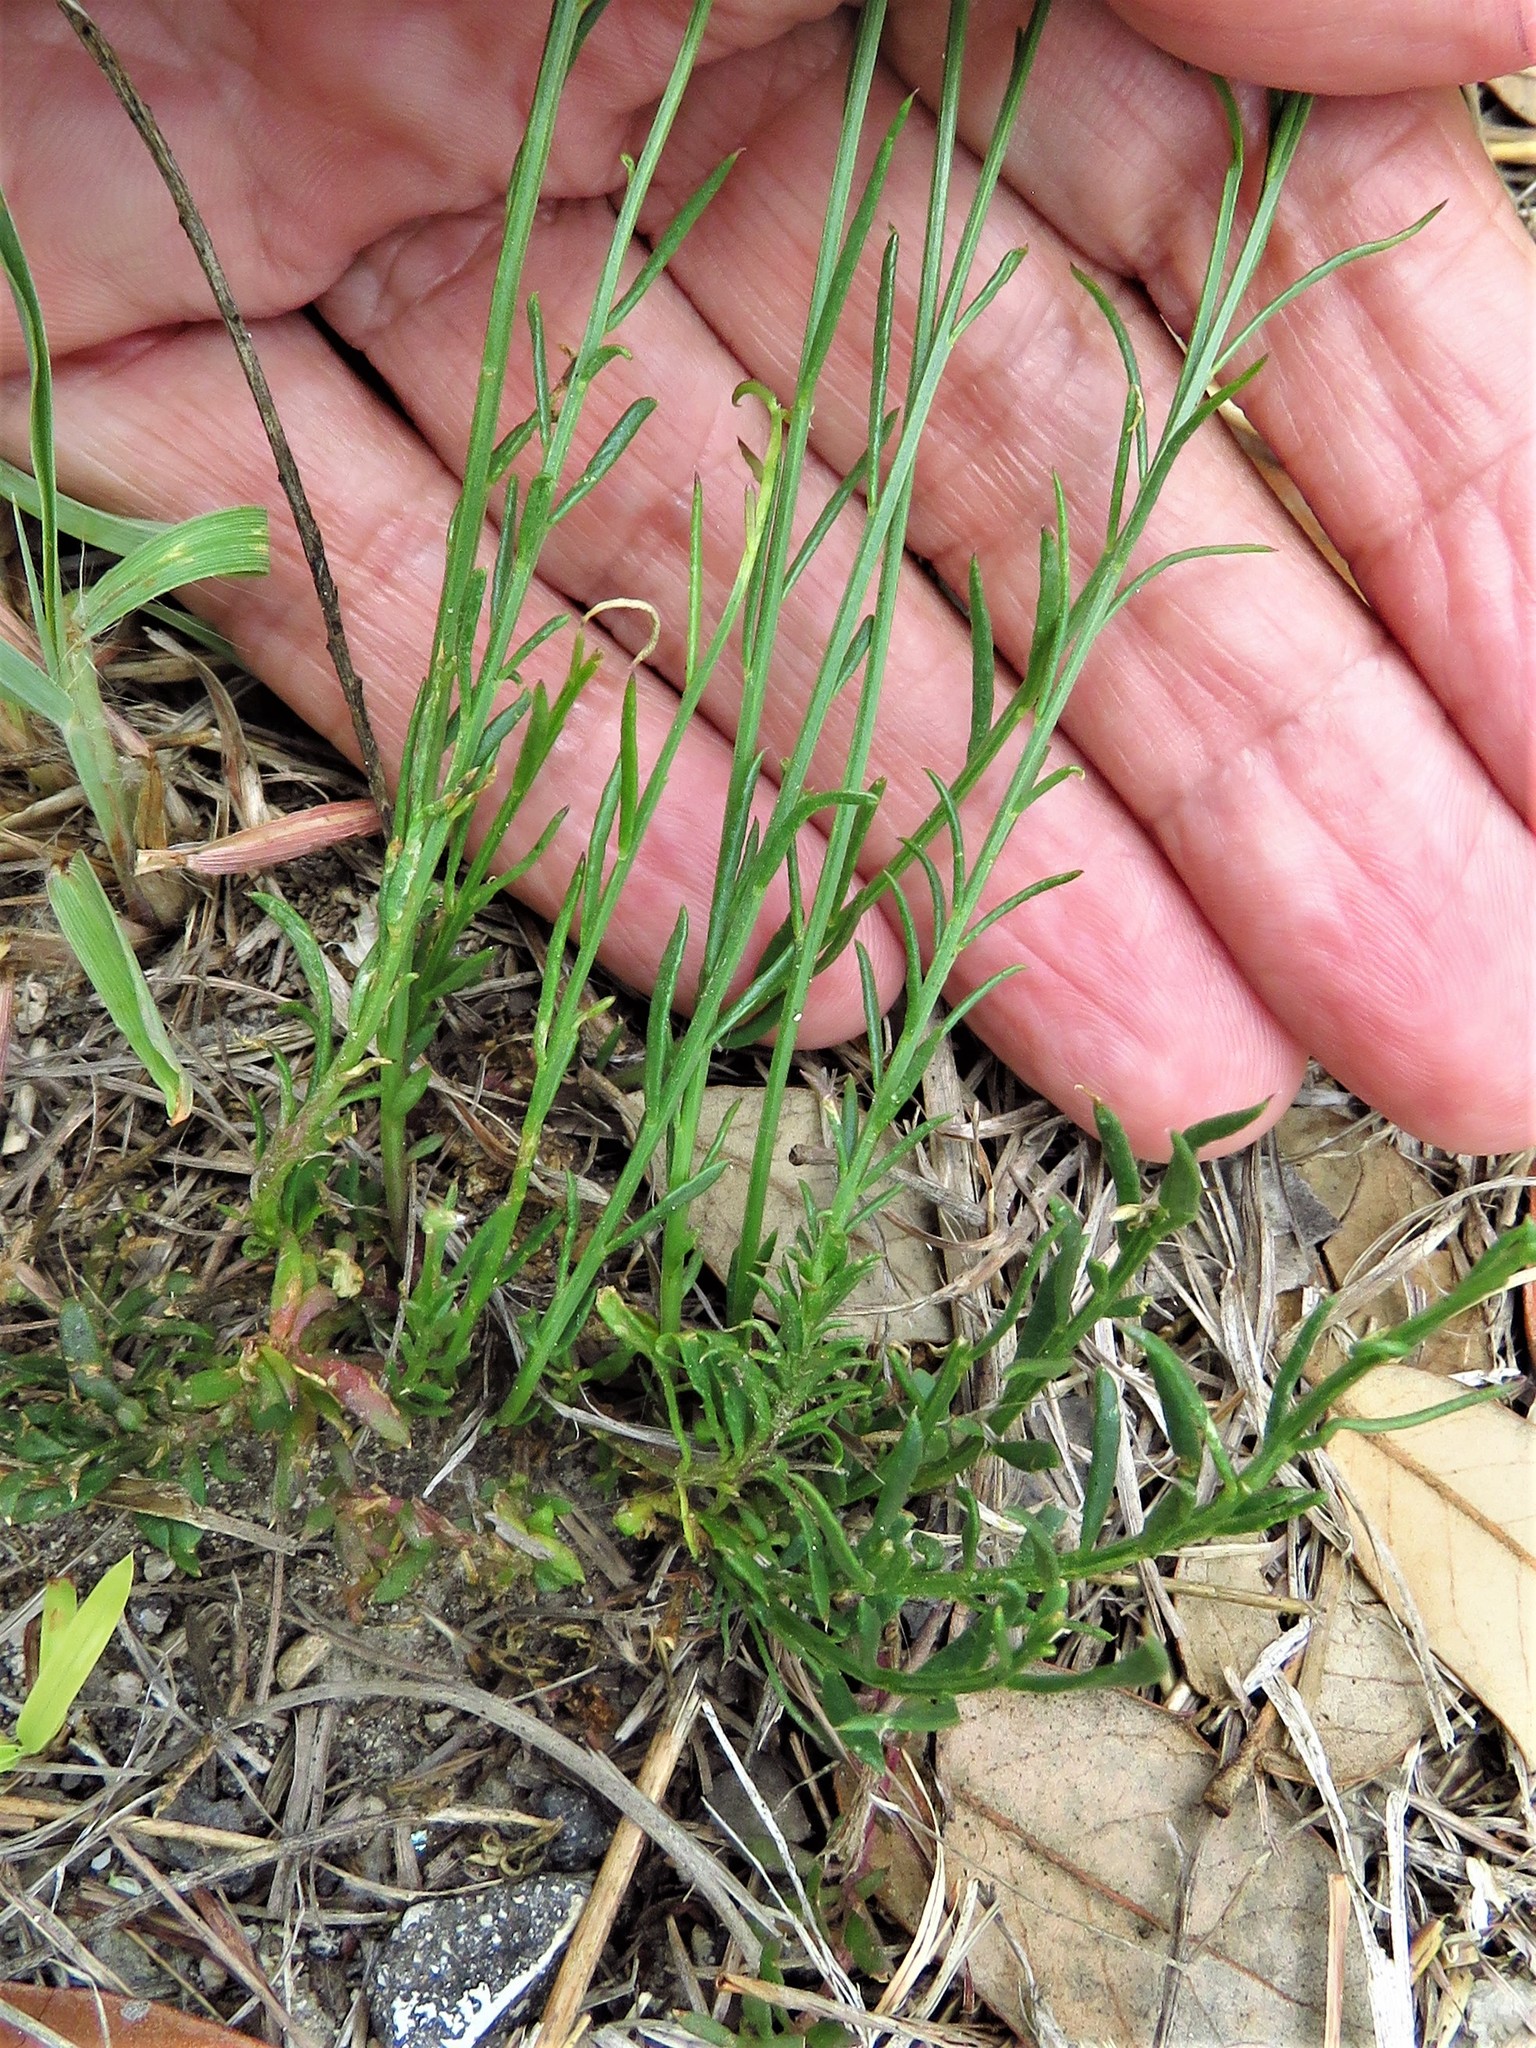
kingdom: Plantae
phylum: Tracheophyta
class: Magnoliopsida
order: Fabales
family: Polygalaceae
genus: Polygala
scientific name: Polygala alba
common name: White milkwort
